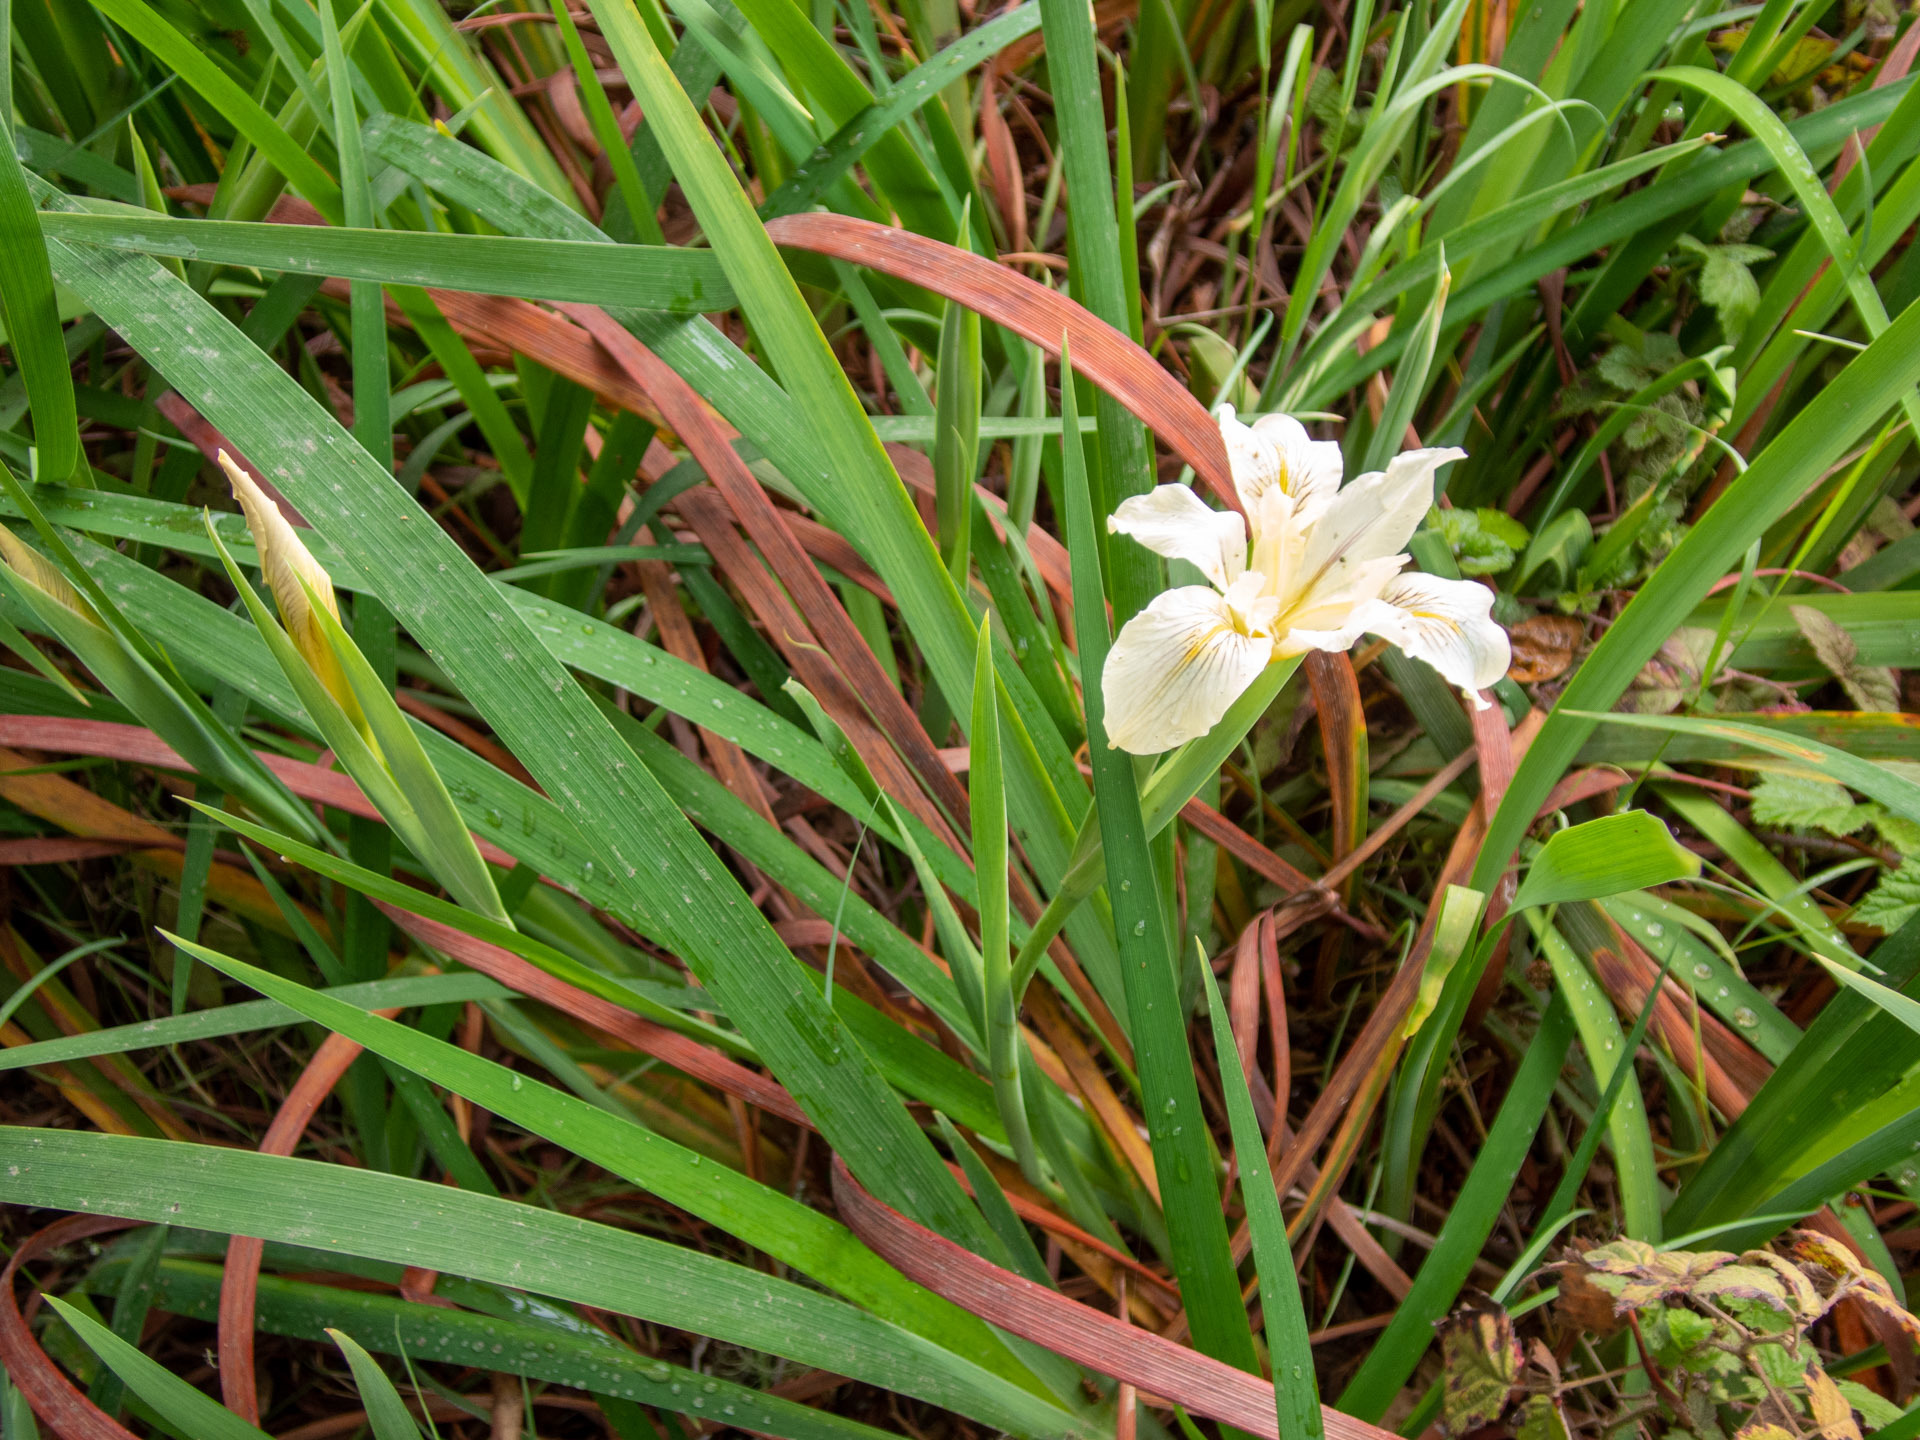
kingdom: Plantae
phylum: Tracheophyta
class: Liliopsida
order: Asparagales
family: Iridaceae
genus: Iris
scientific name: Iris fernaldii
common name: Fernald's iris
